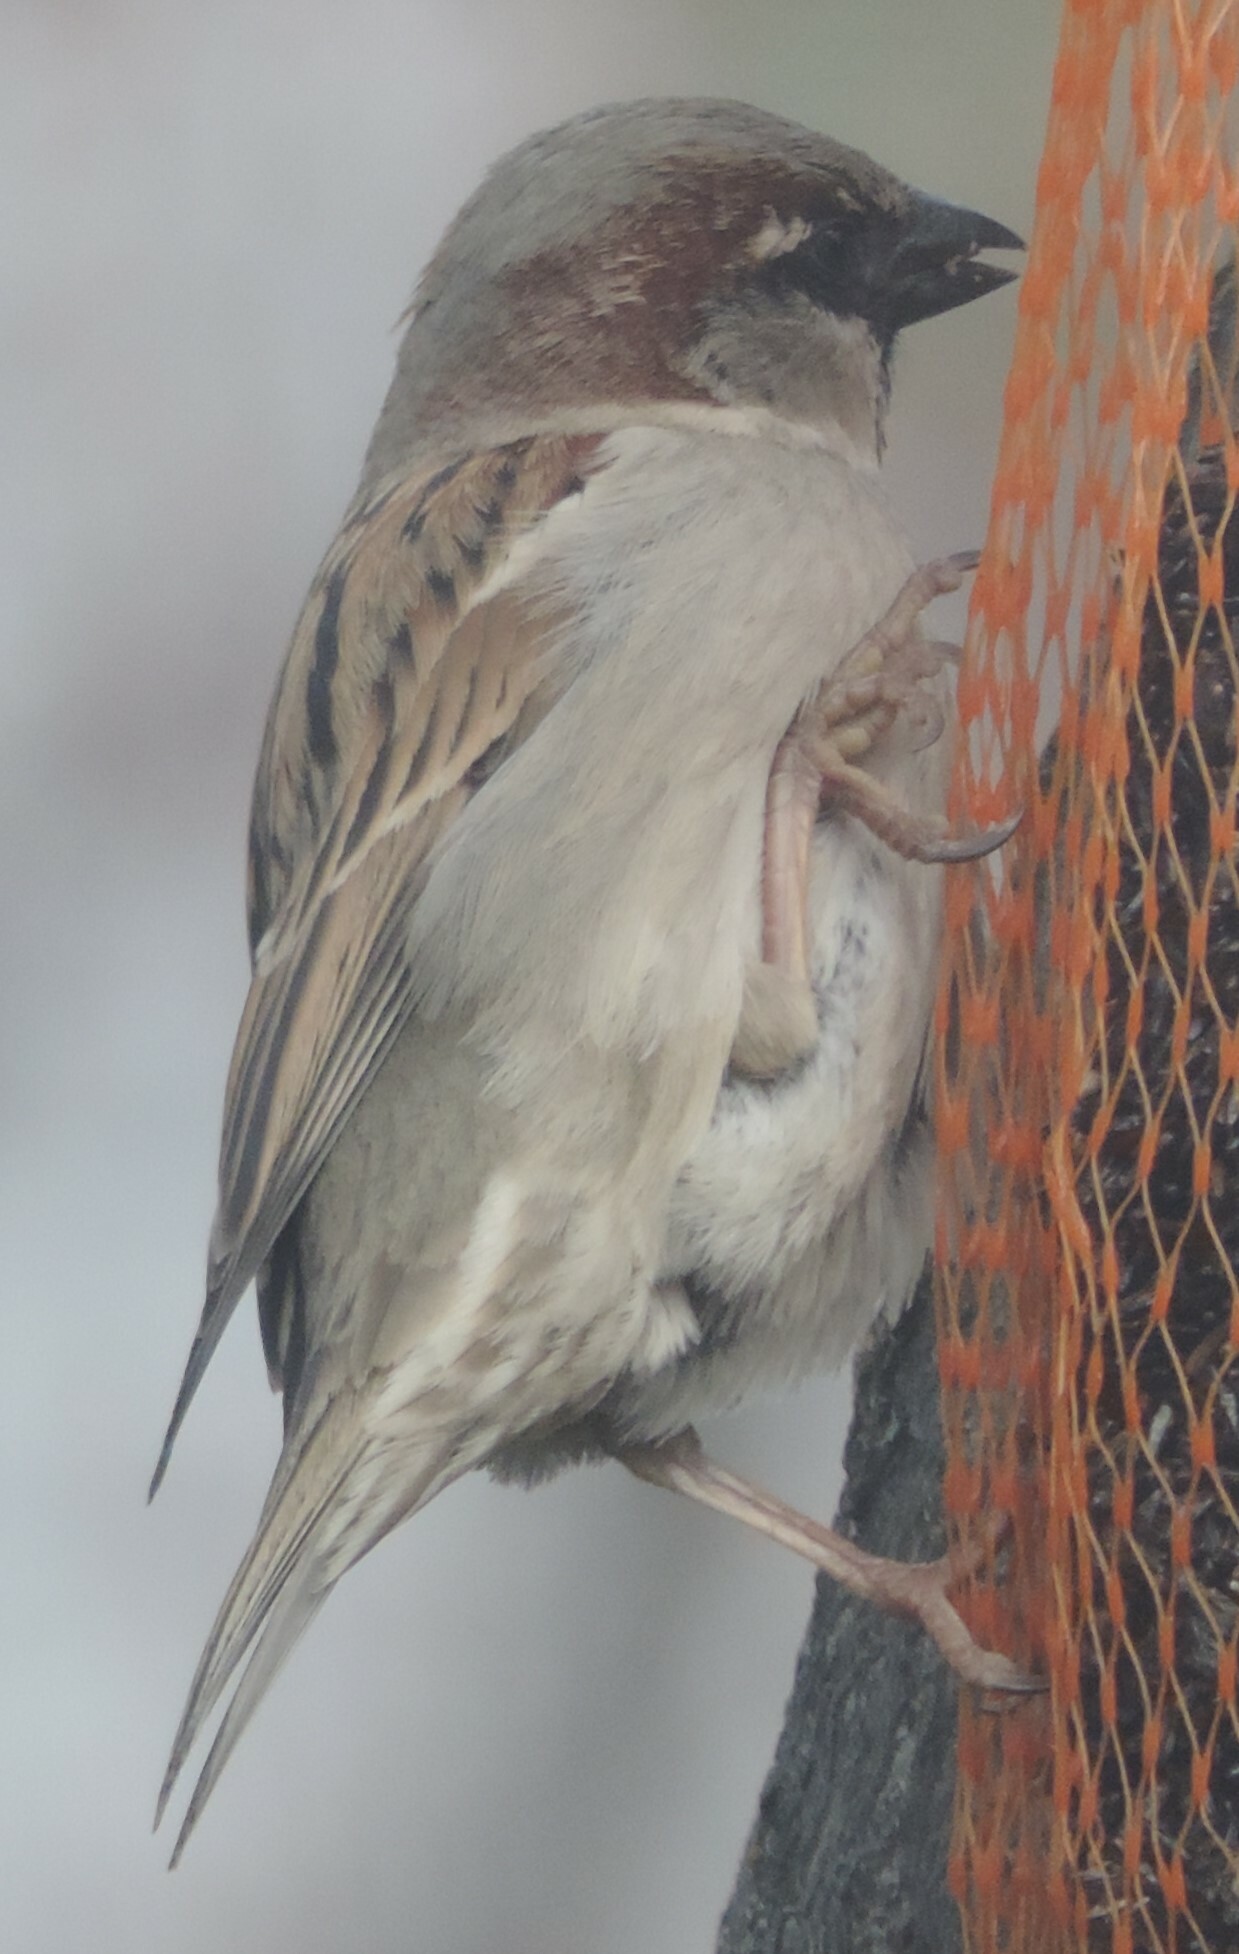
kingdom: Animalia
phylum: Chordata
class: Aves
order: Passeriformes
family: Passeridae
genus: Passer
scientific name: Passer domesticus
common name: House sparrow
